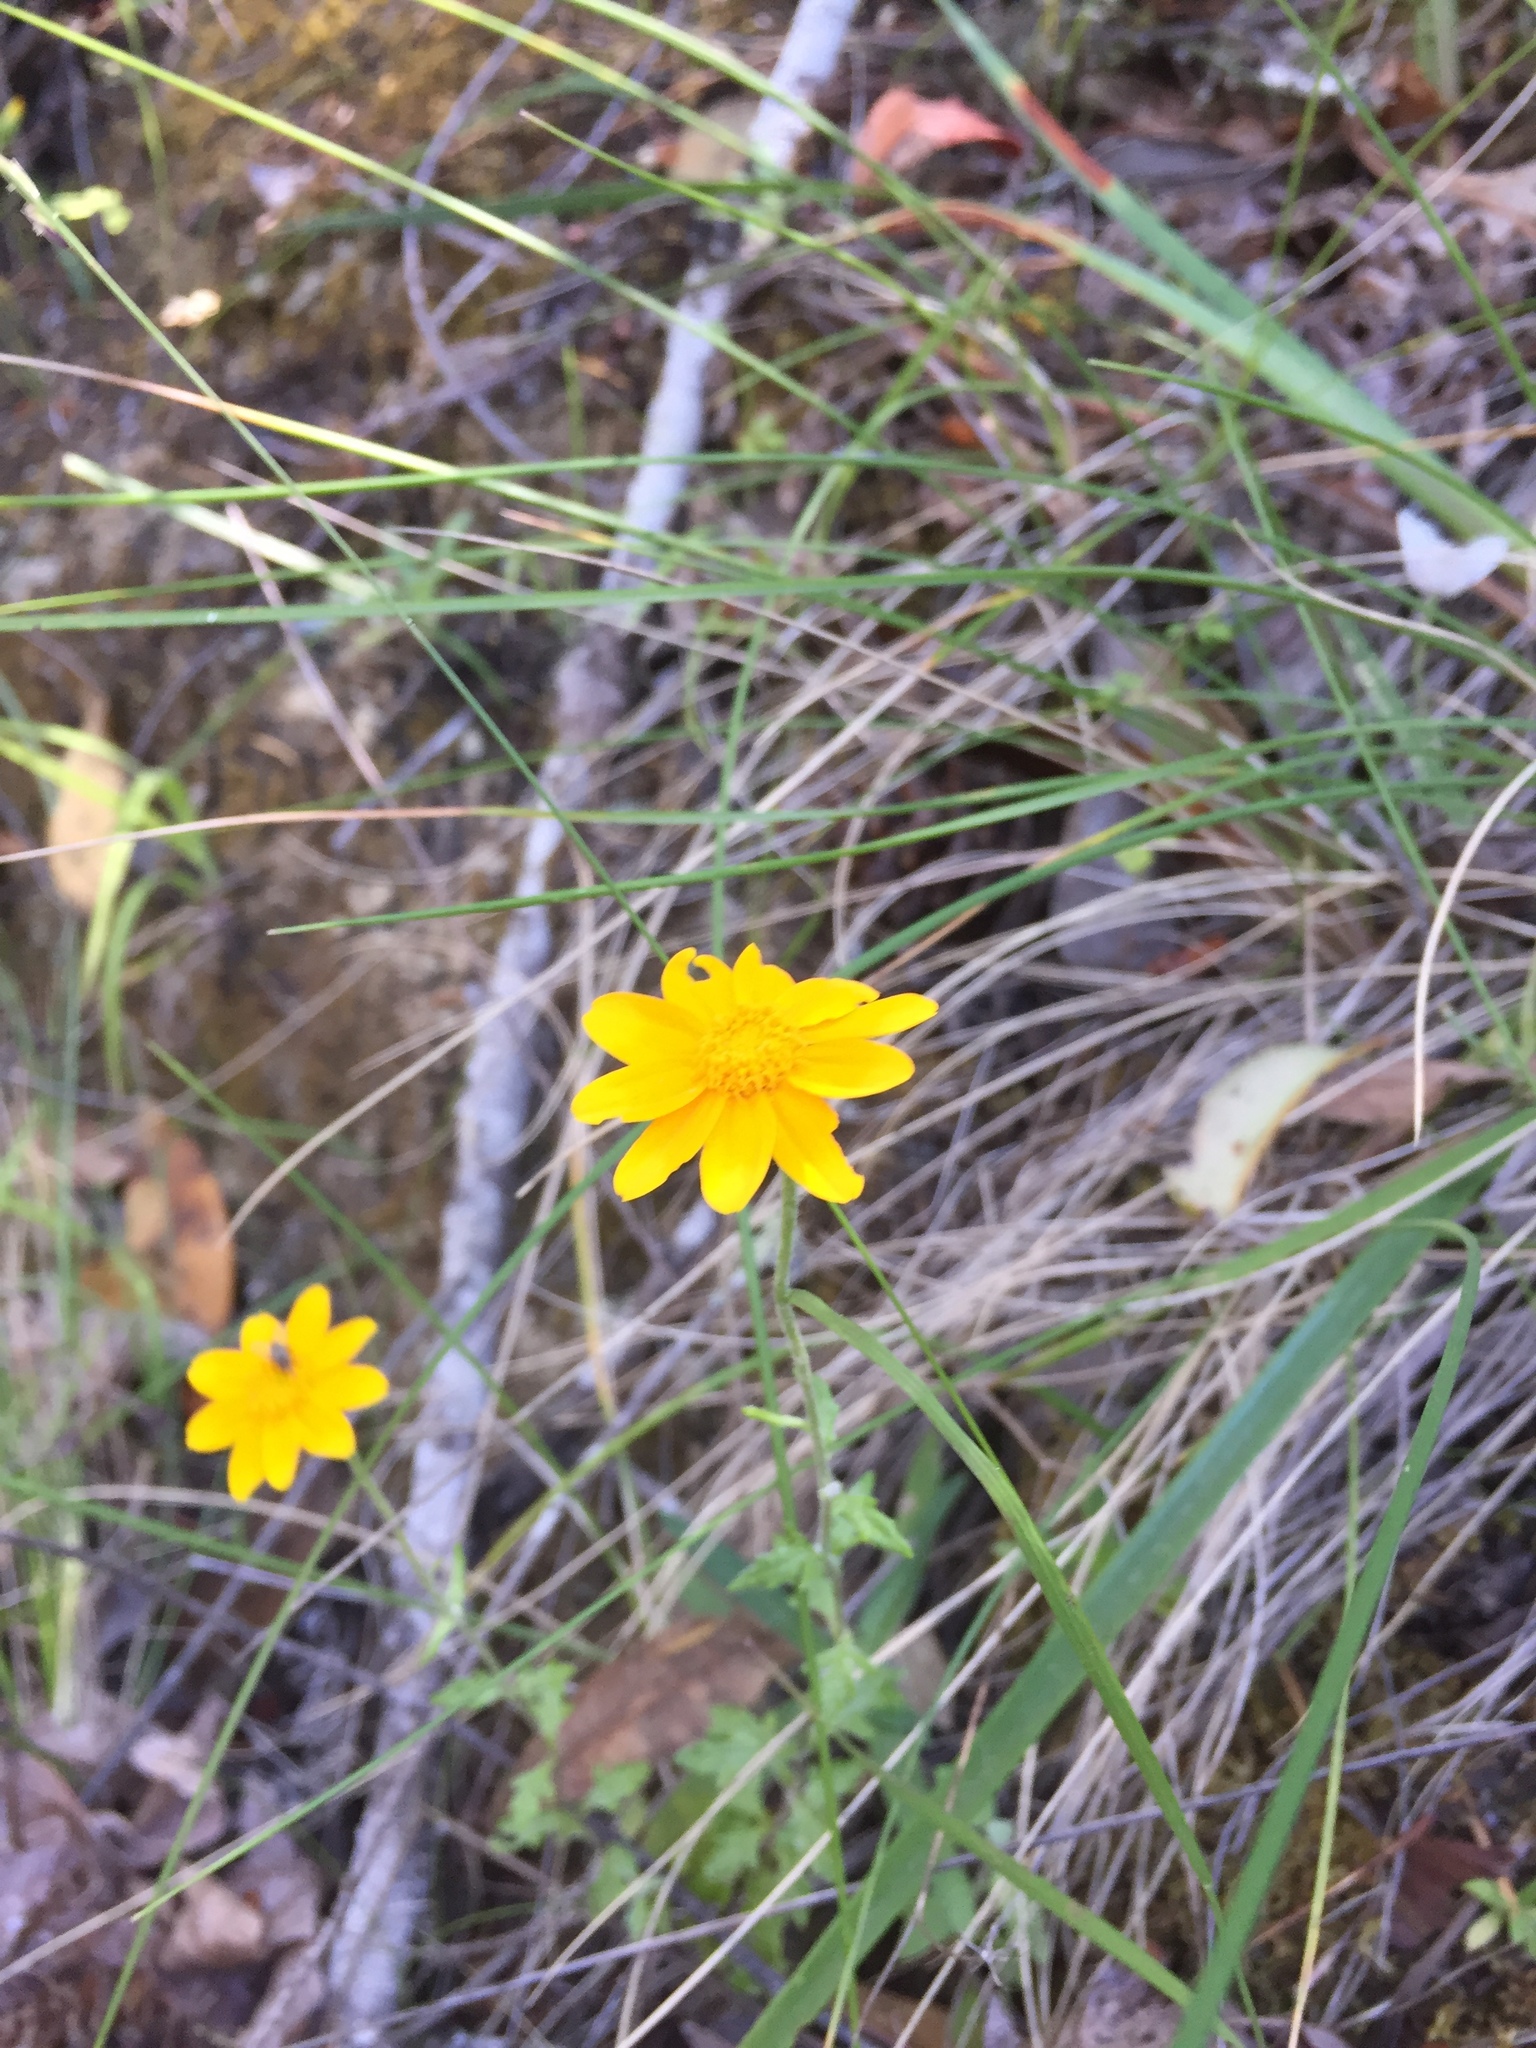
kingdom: Plantae
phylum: Tracheophyta
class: Magnoliopsida
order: Asterales
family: Asteraceae
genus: Eriophyllum
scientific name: Eriophyllum lanatum
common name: Common woolly-sunflower
